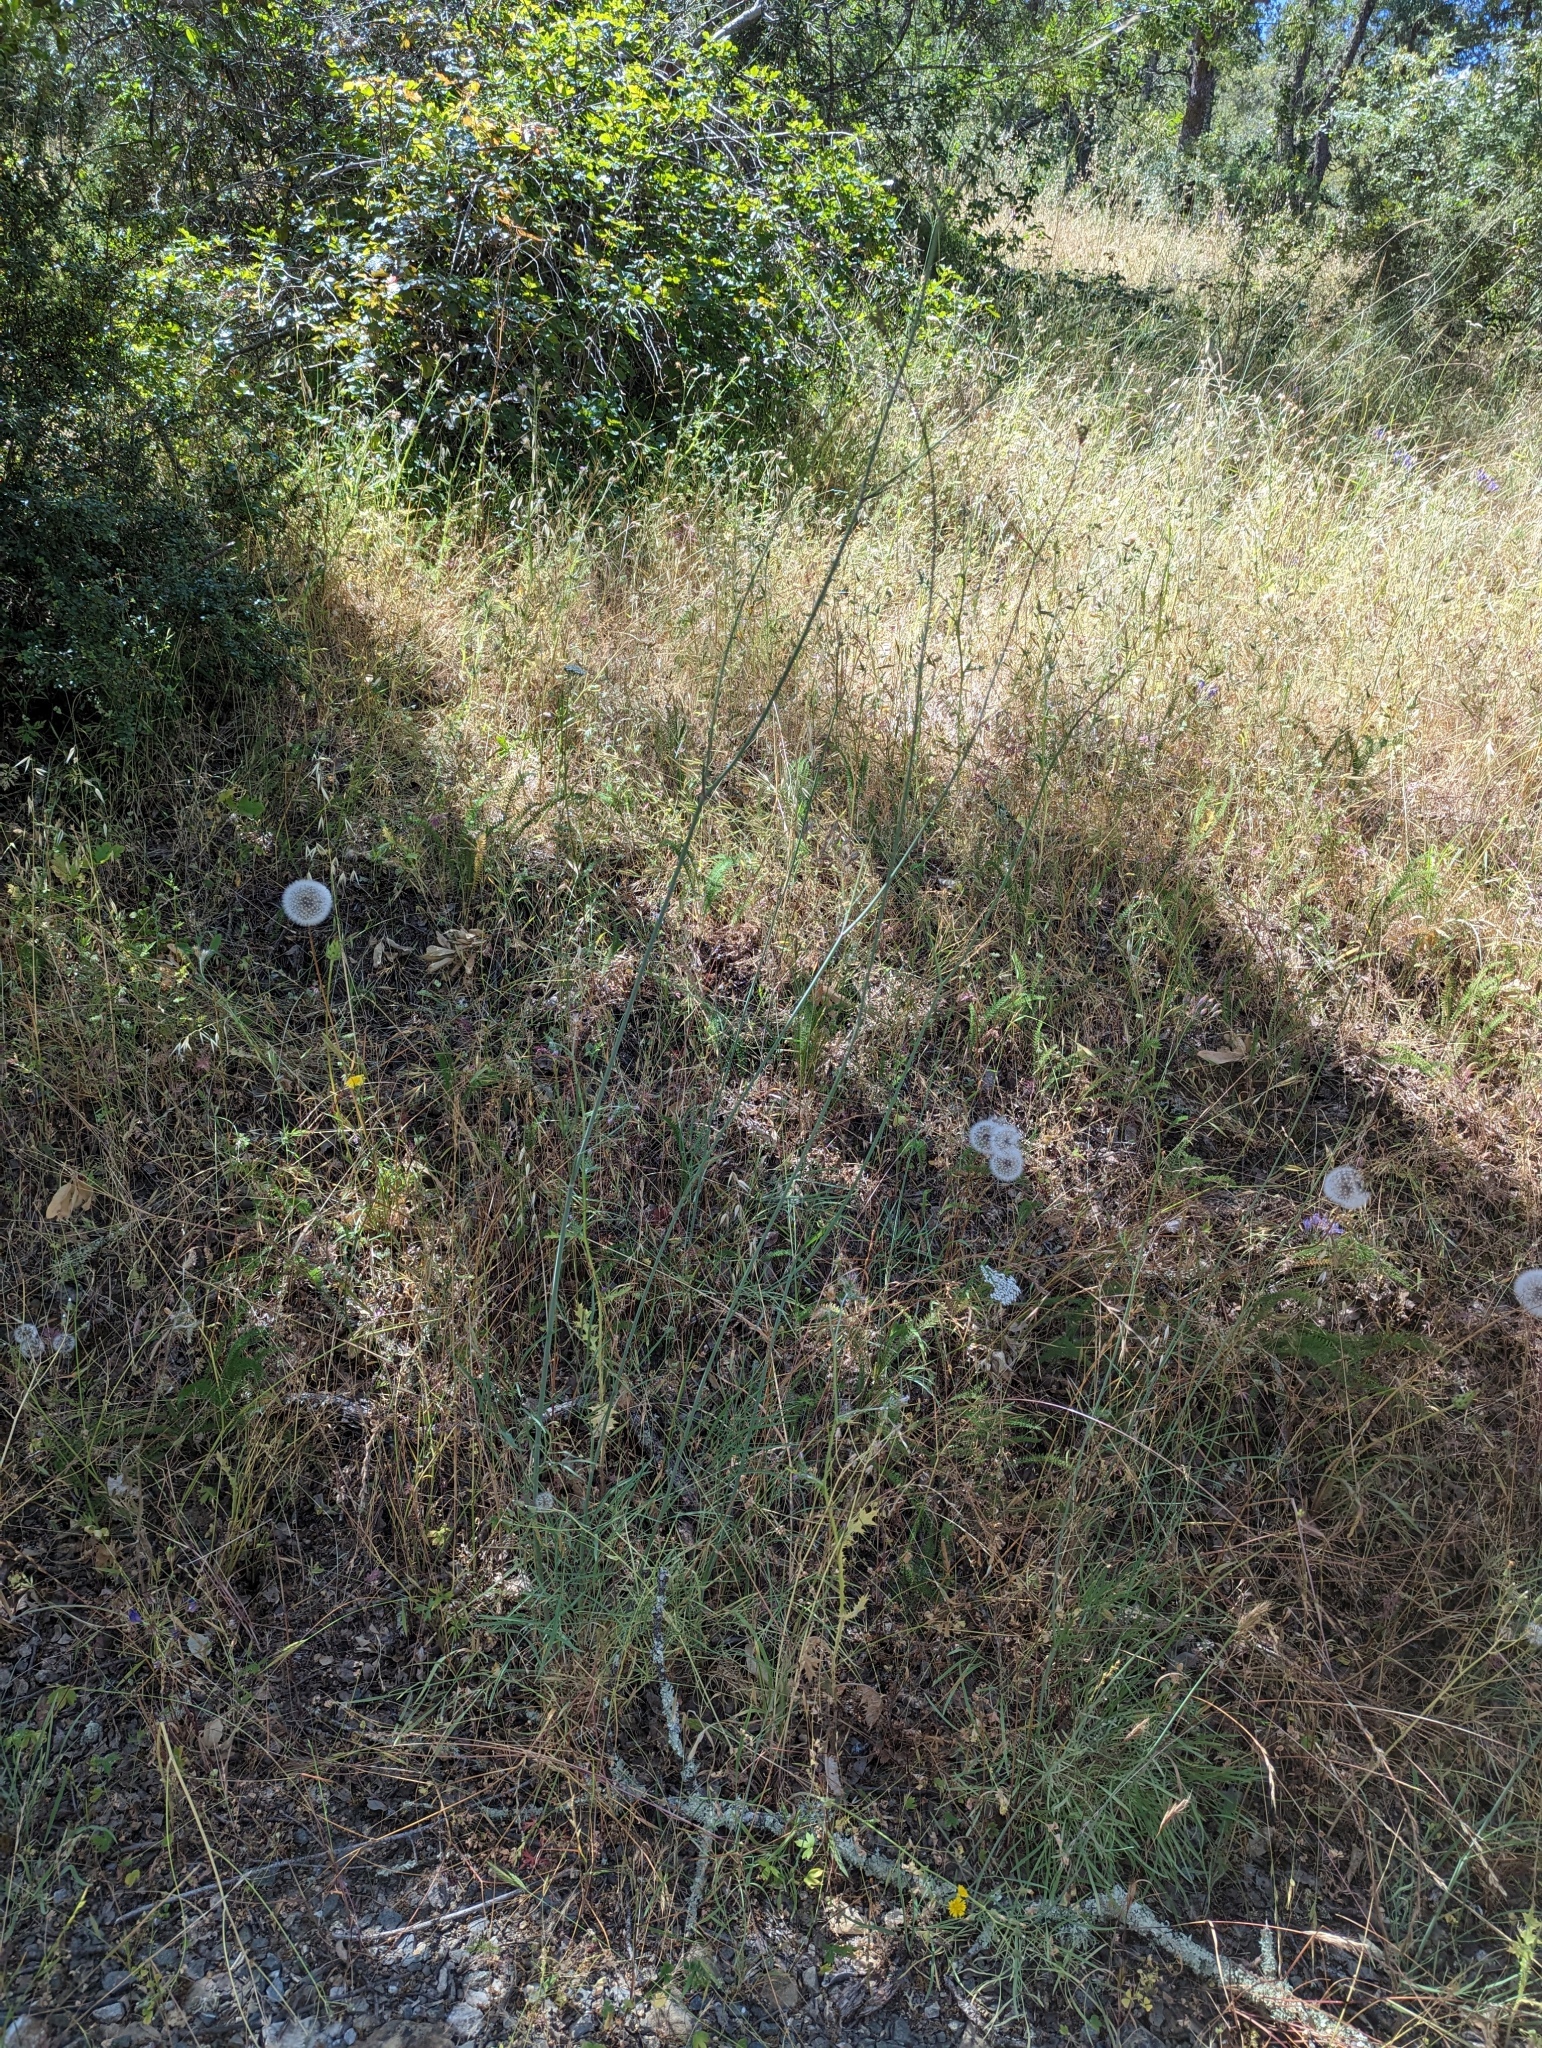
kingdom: Plantae
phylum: Tracheophyta
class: Magnoliopsida
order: Apiales
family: Apiaceae
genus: Perideridia
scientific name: Perideridia kelloggii
